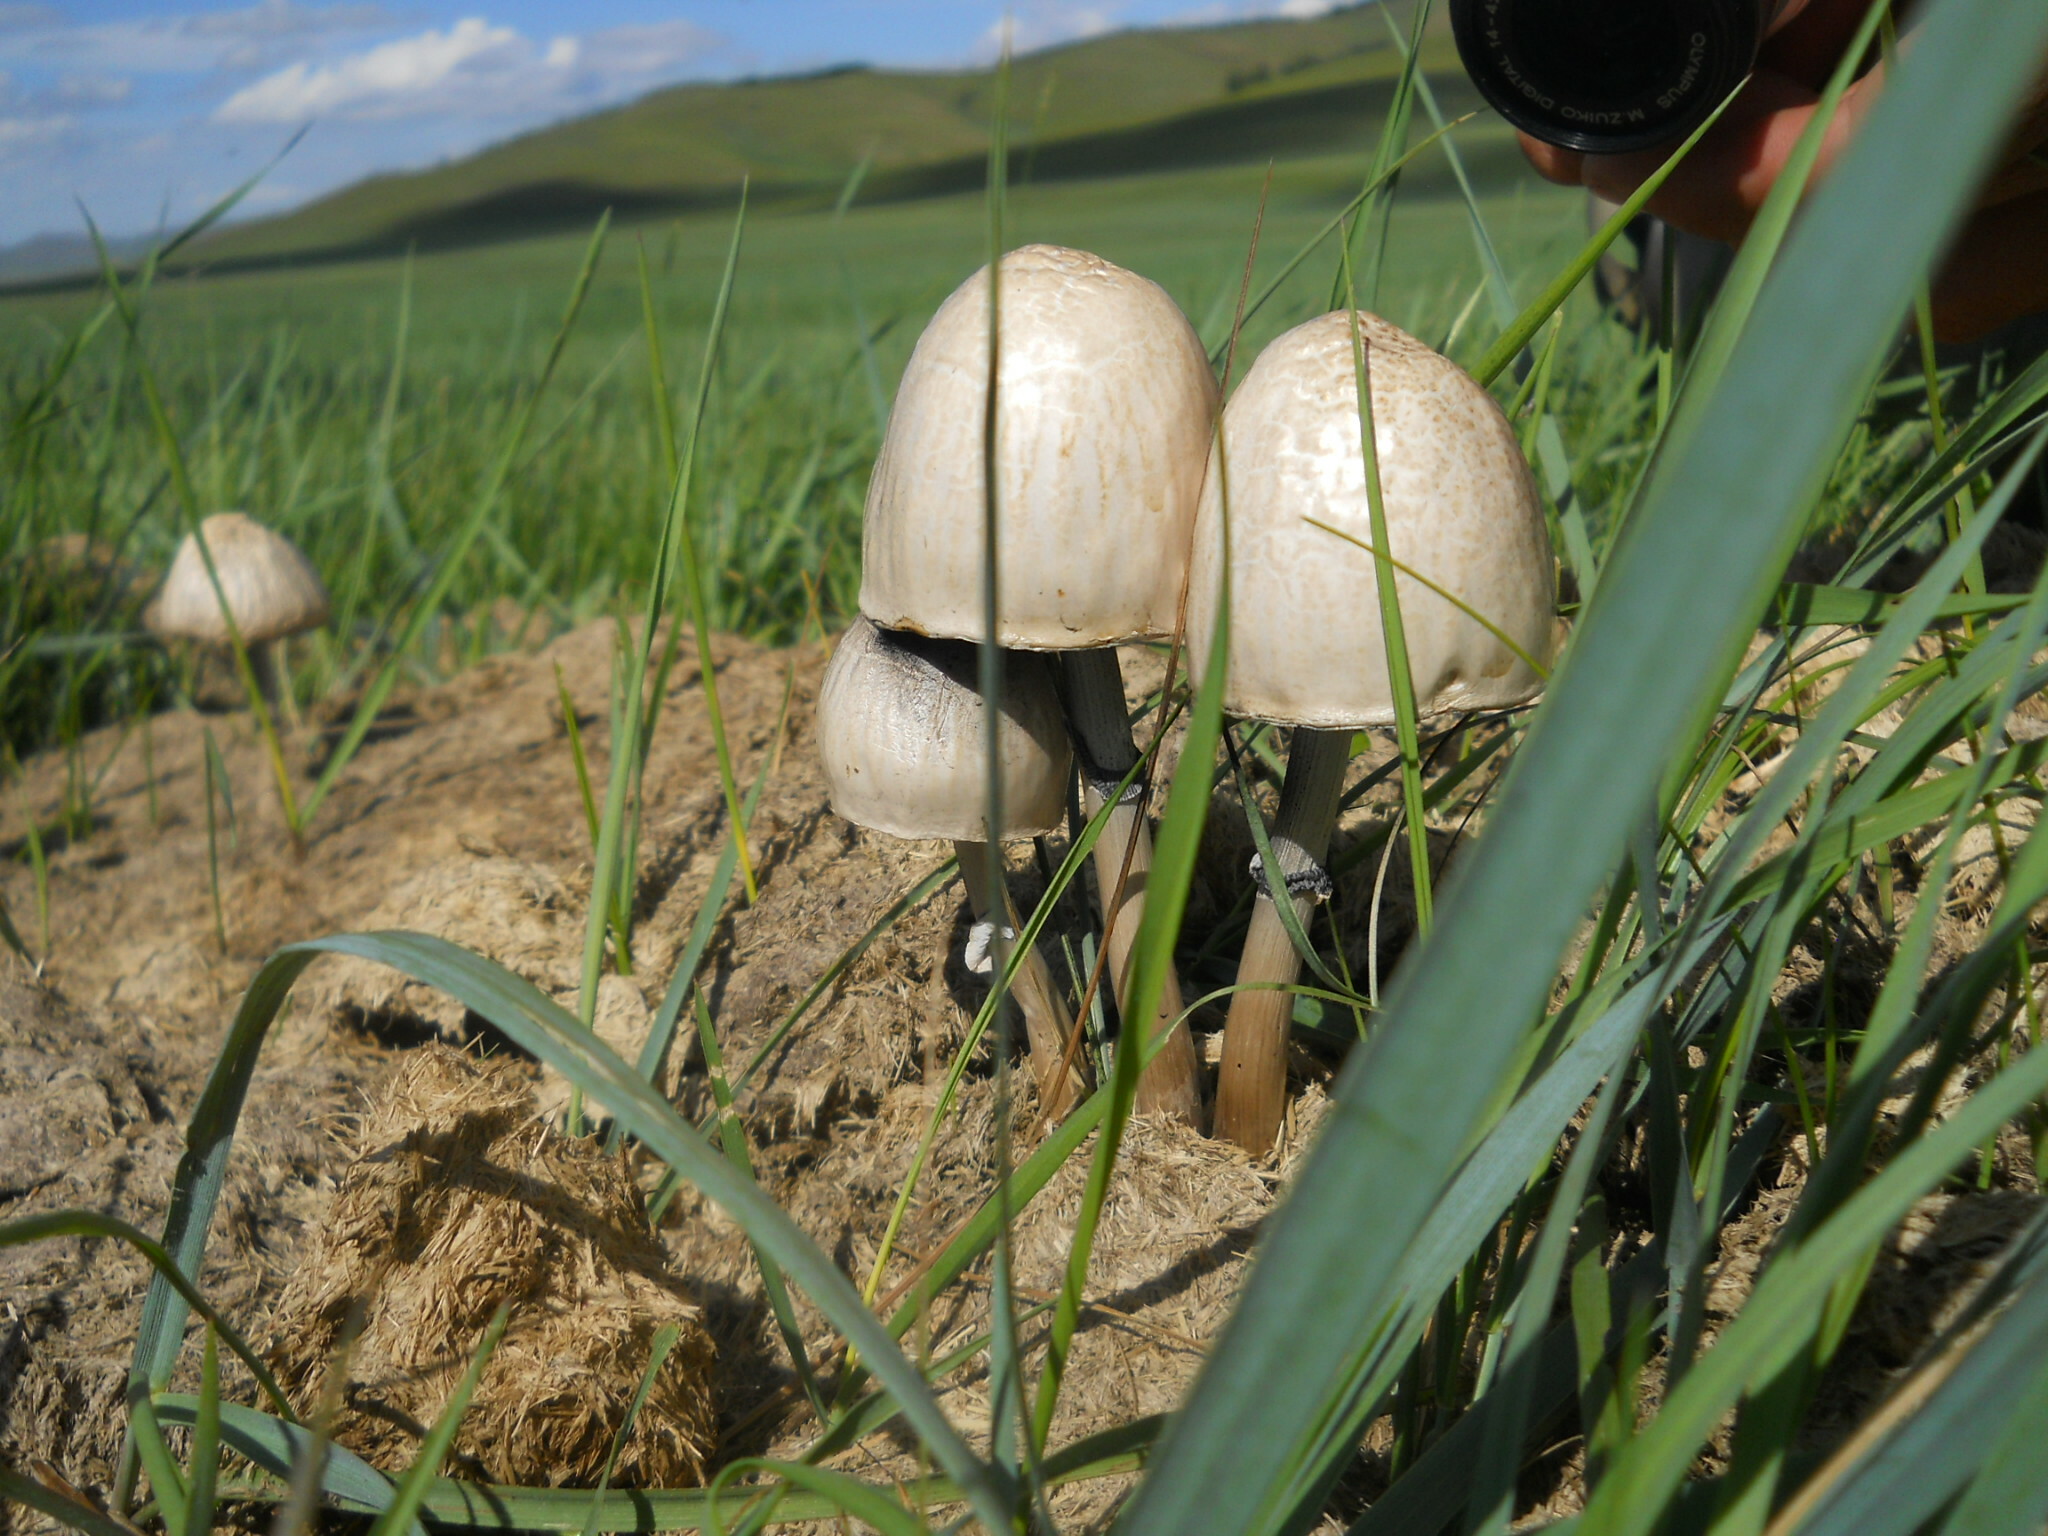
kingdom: Fungi
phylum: Basidiomycota
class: Agaricomycetes
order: Agaricales
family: Bolbitiaceae
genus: Panaeolus
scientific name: Panaeolus semiovatus
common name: Shiny mottlegill
